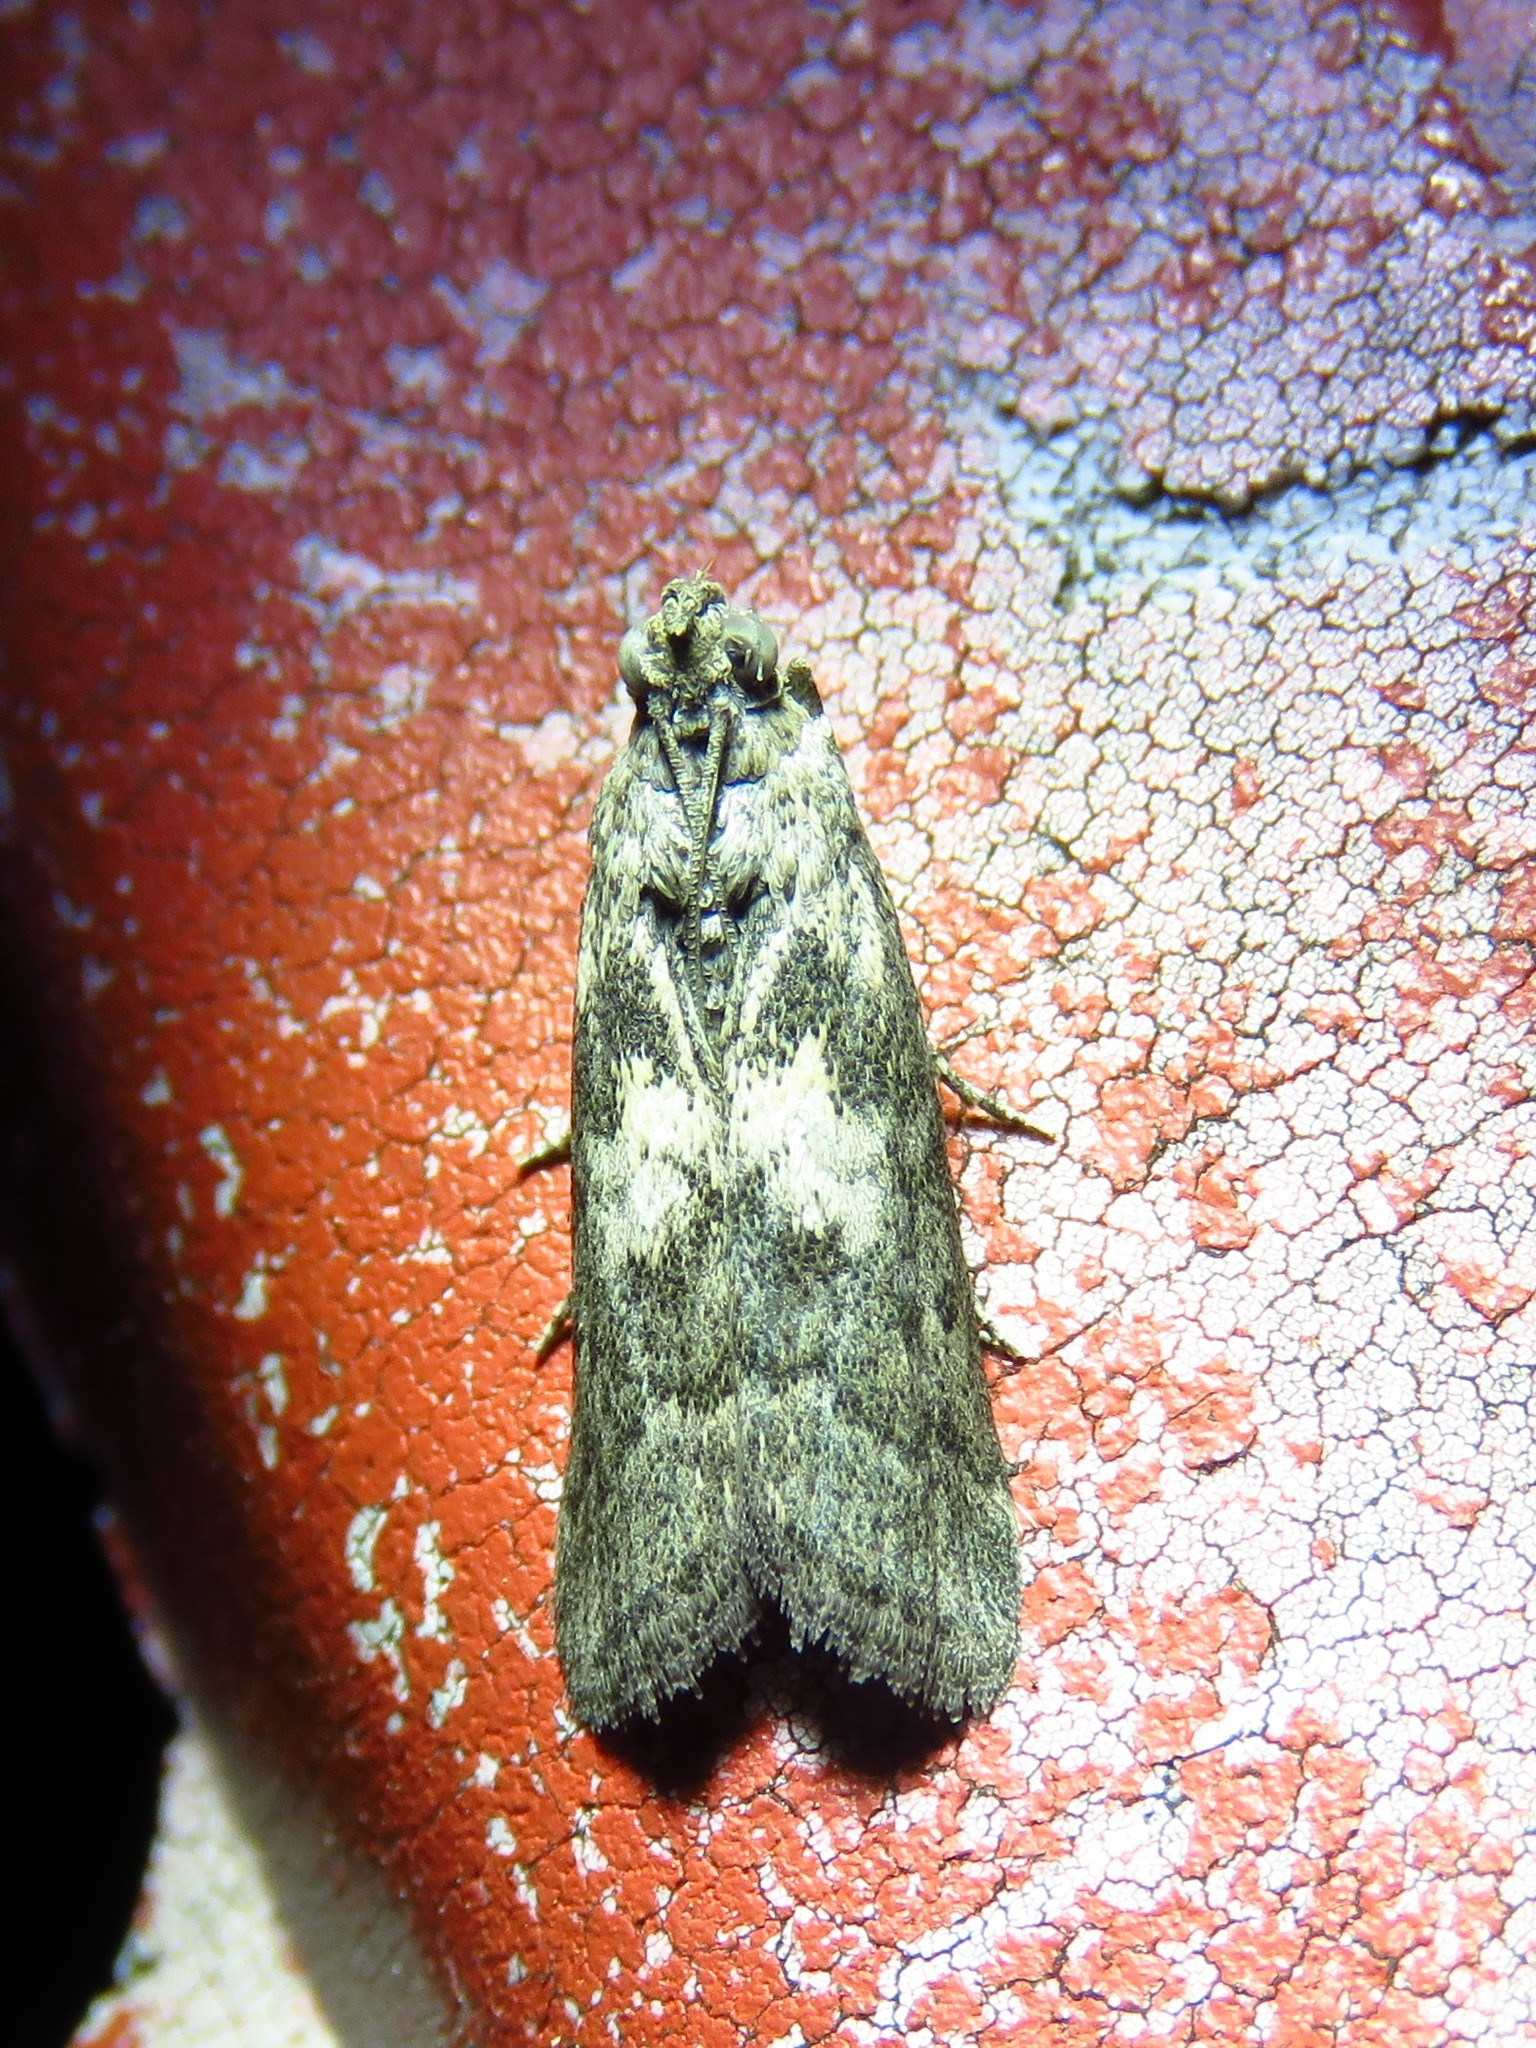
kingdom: Animalia
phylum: Arthropoda
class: Insecta
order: Lepidoptera
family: Pyralidae
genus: Tacoma
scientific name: Tacoma feriella
